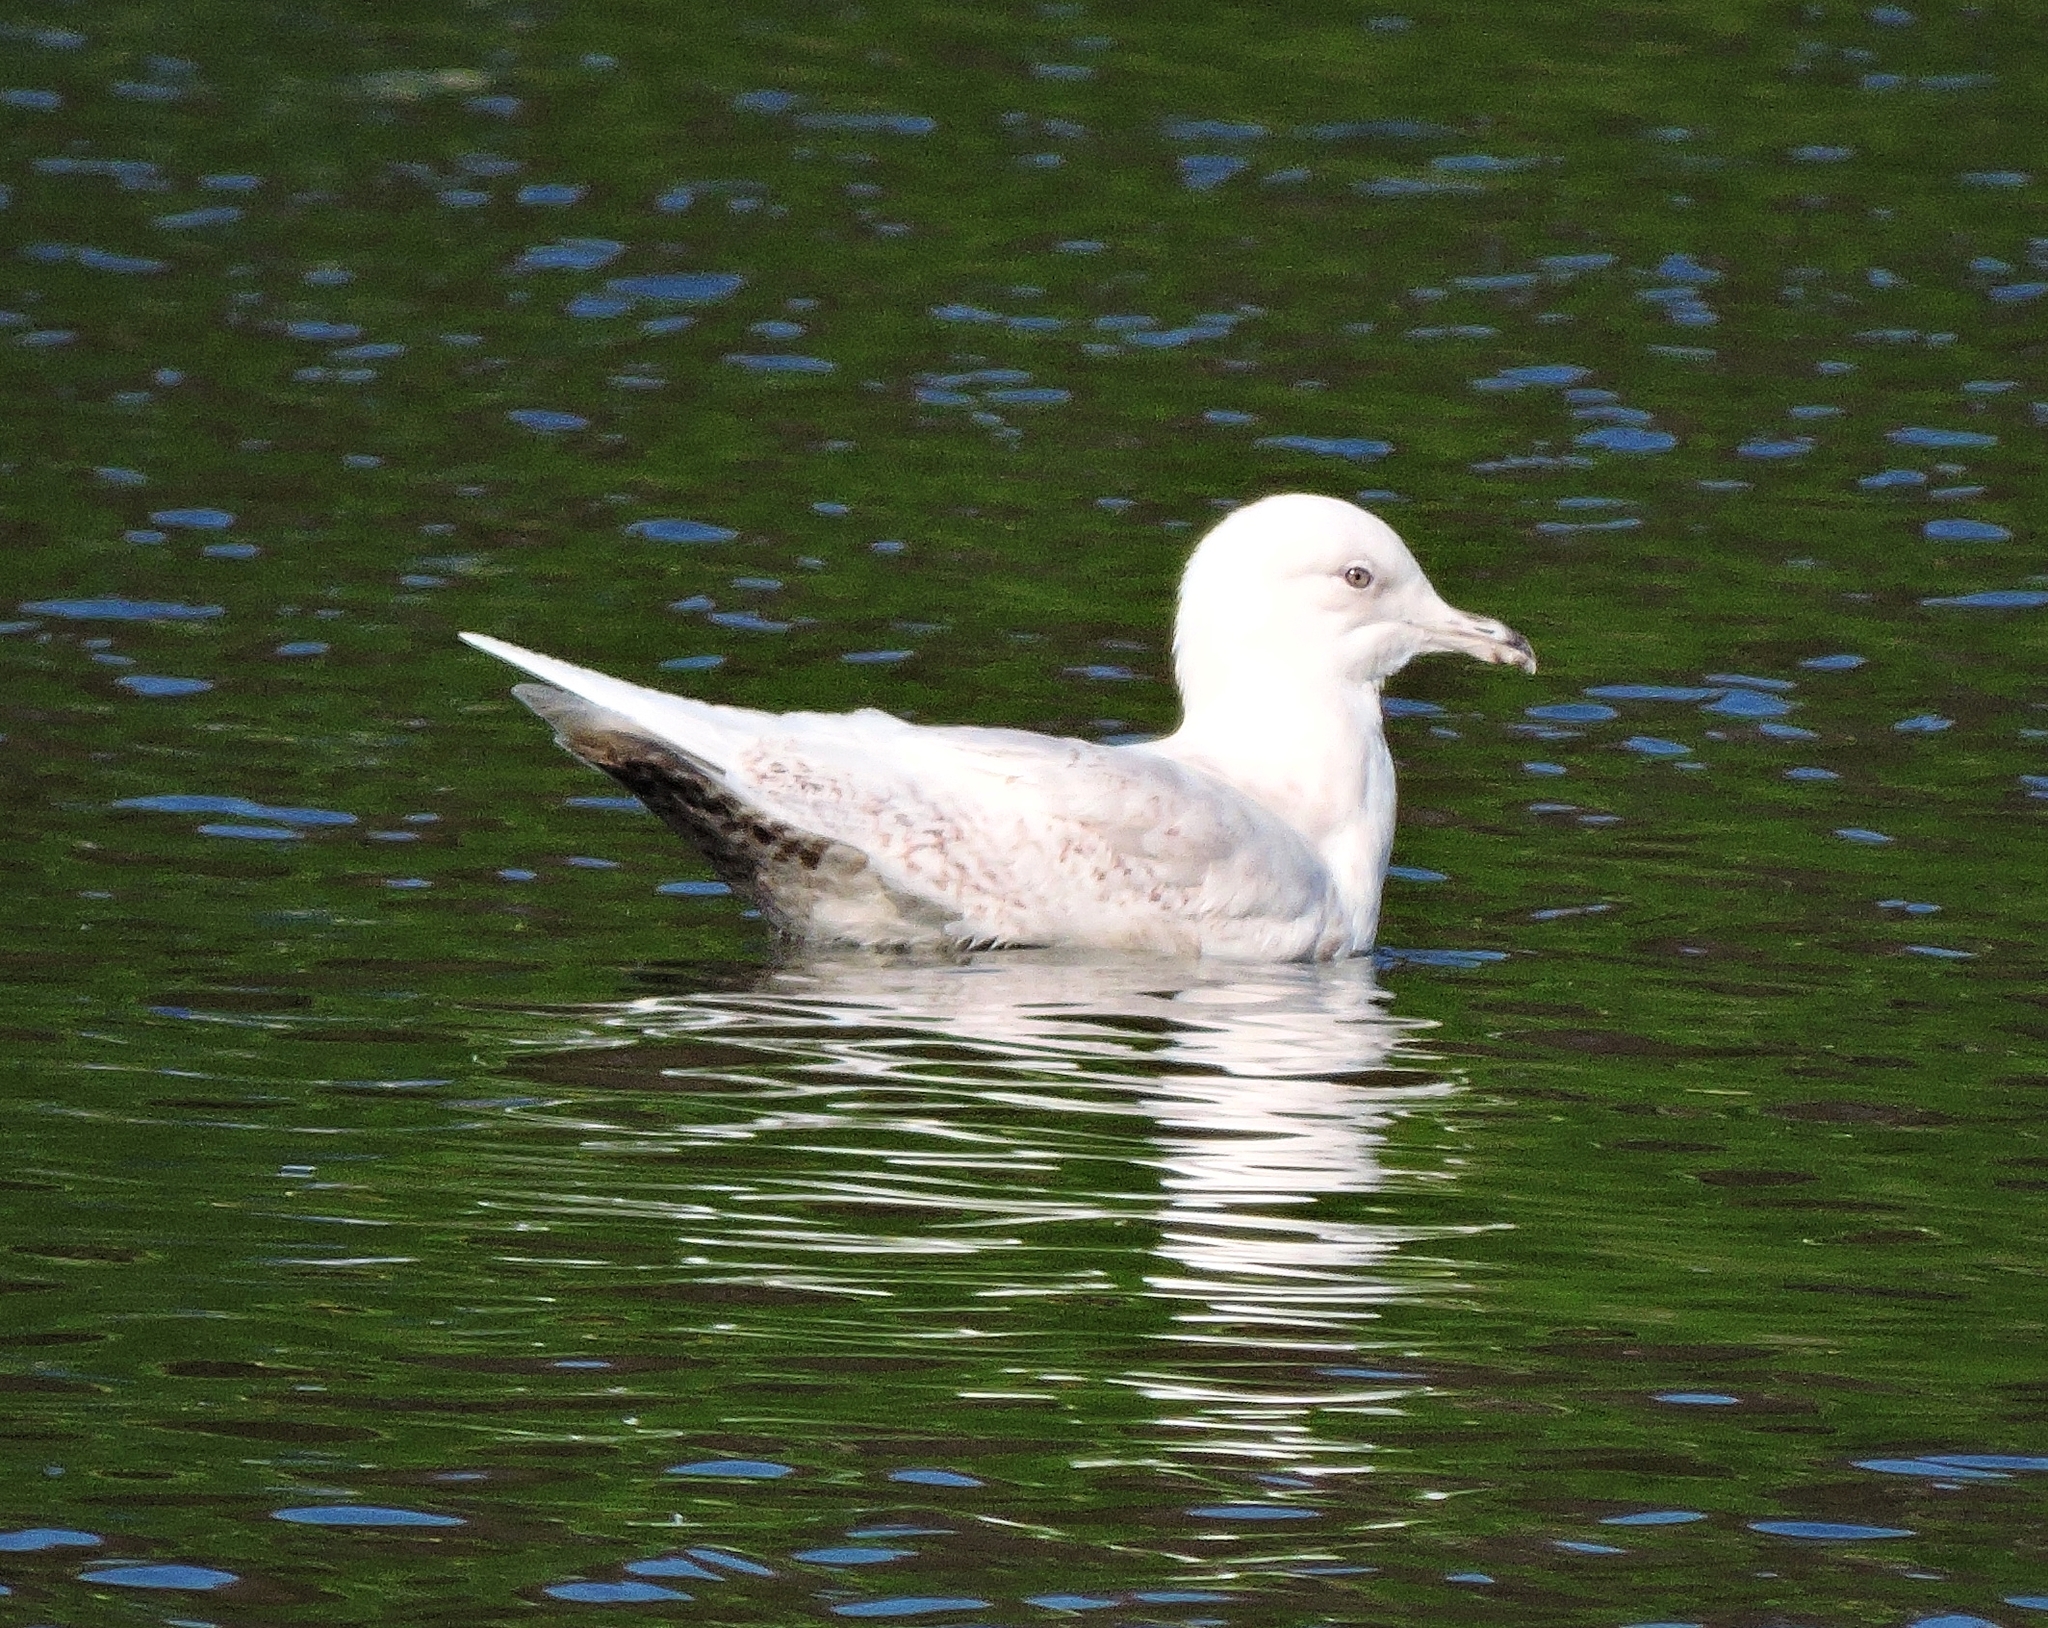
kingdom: Animalia
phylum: Chordata
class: Aves
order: Charadriiformes
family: Laridae
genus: Larus
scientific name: Larus glaucoides
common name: Iceland gull
